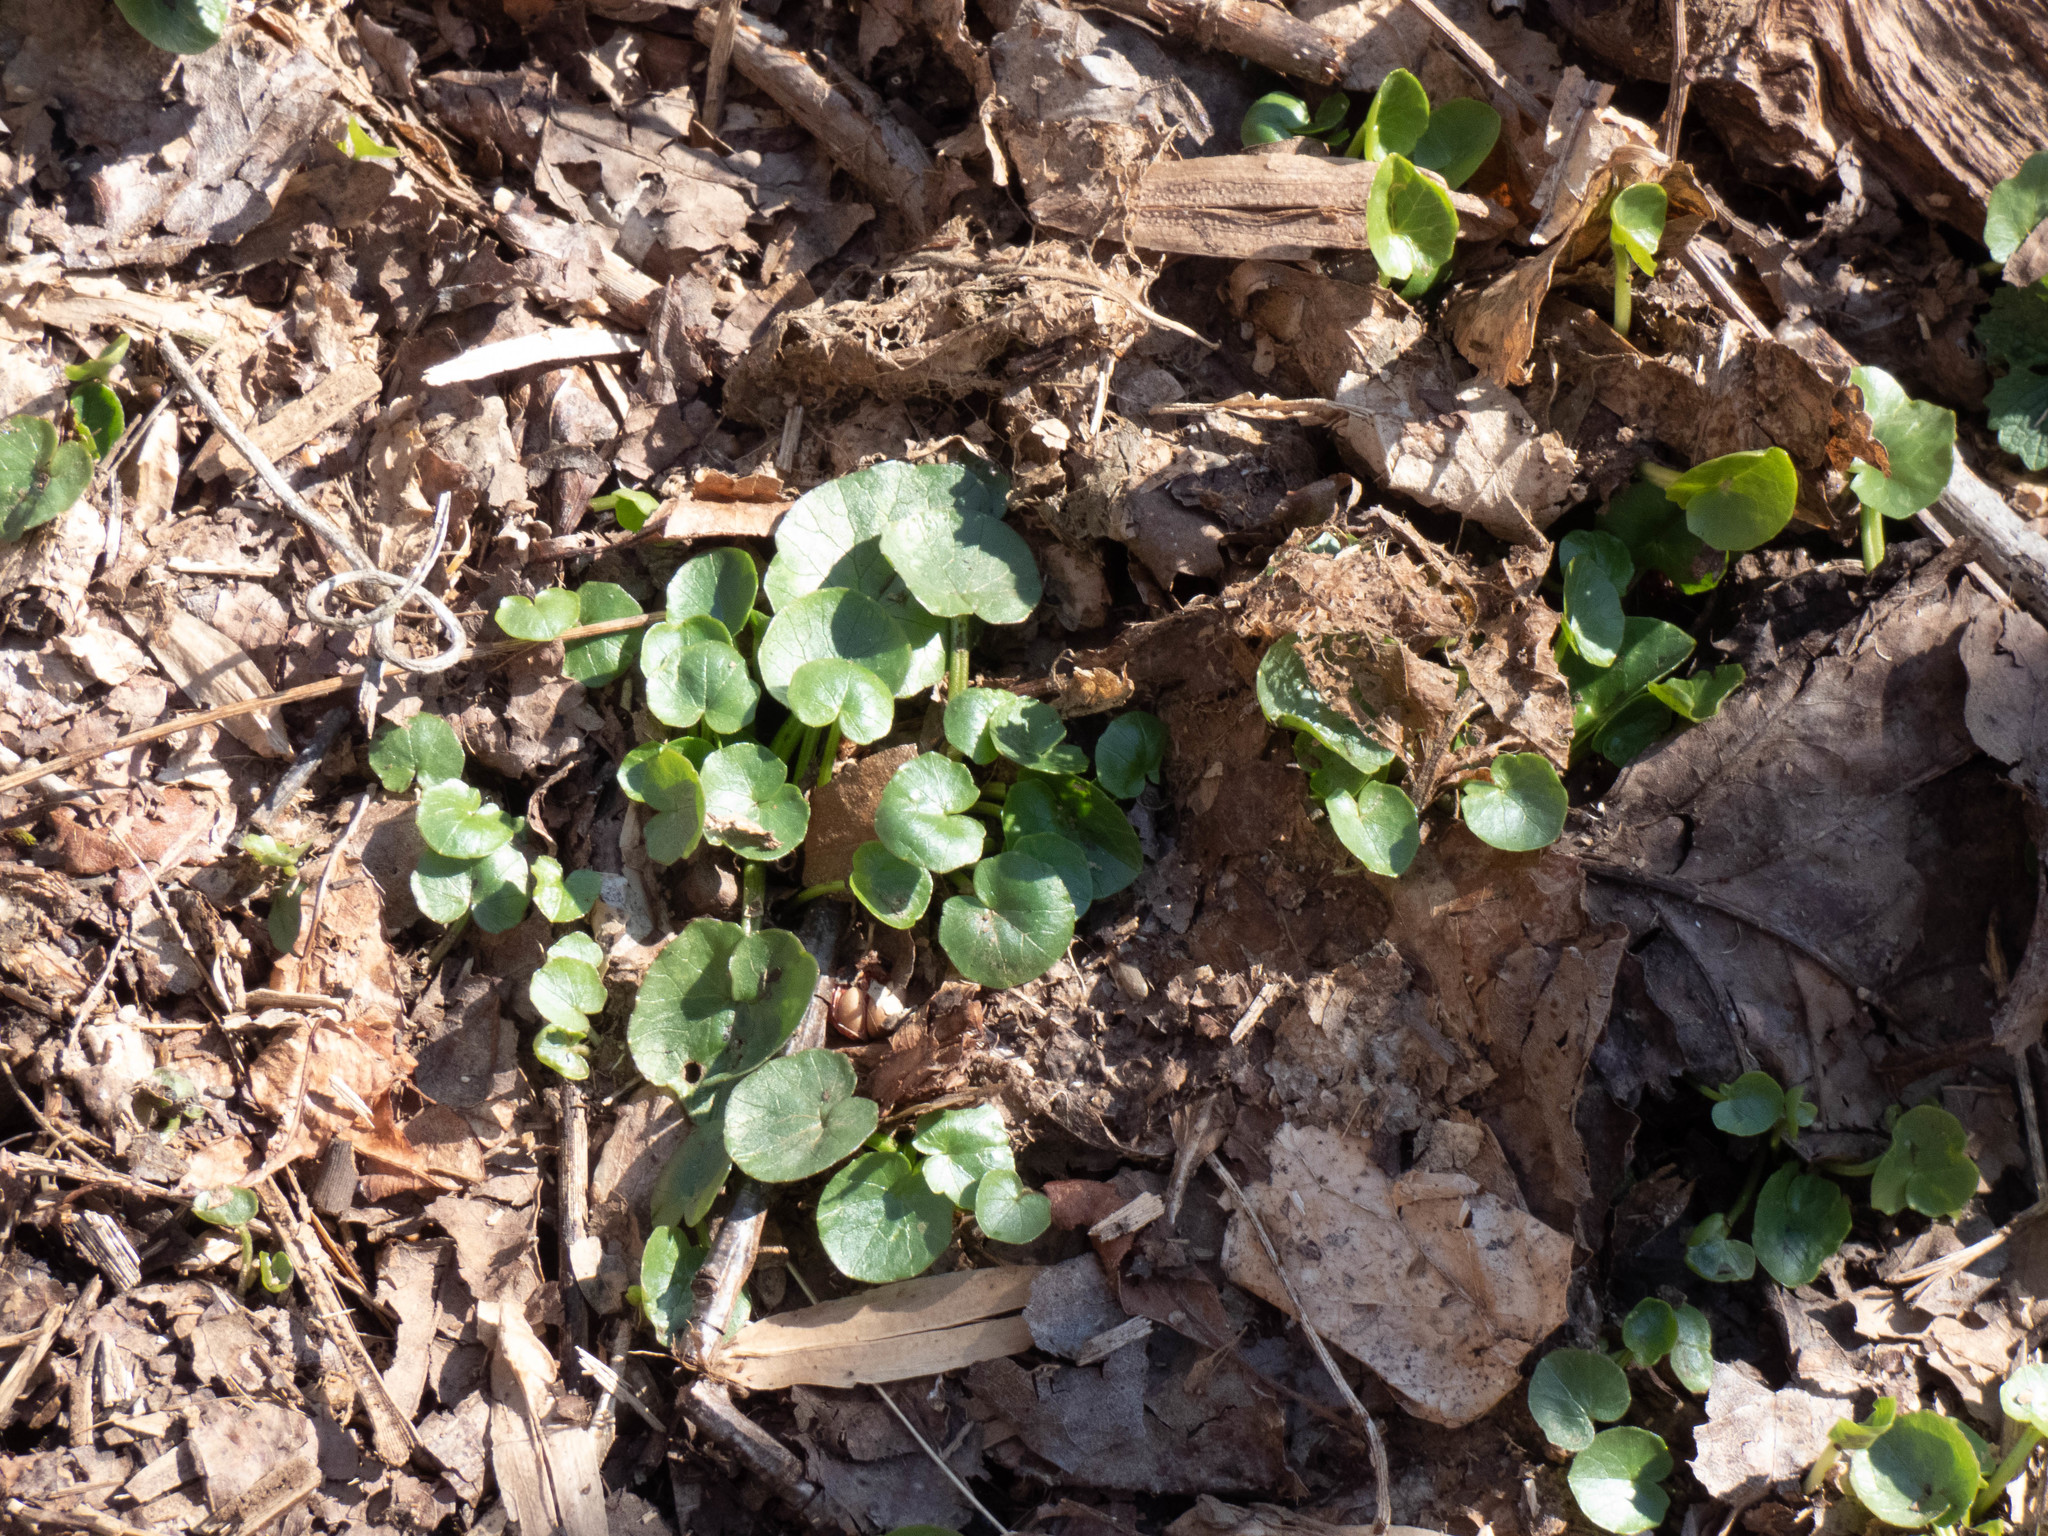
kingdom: Plantae
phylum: Tracheophyta
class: Magnoliopsida
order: Ranunculales
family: Ranunculaceae
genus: Ficaria
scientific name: Ficaria verna
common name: Lesser celandine
